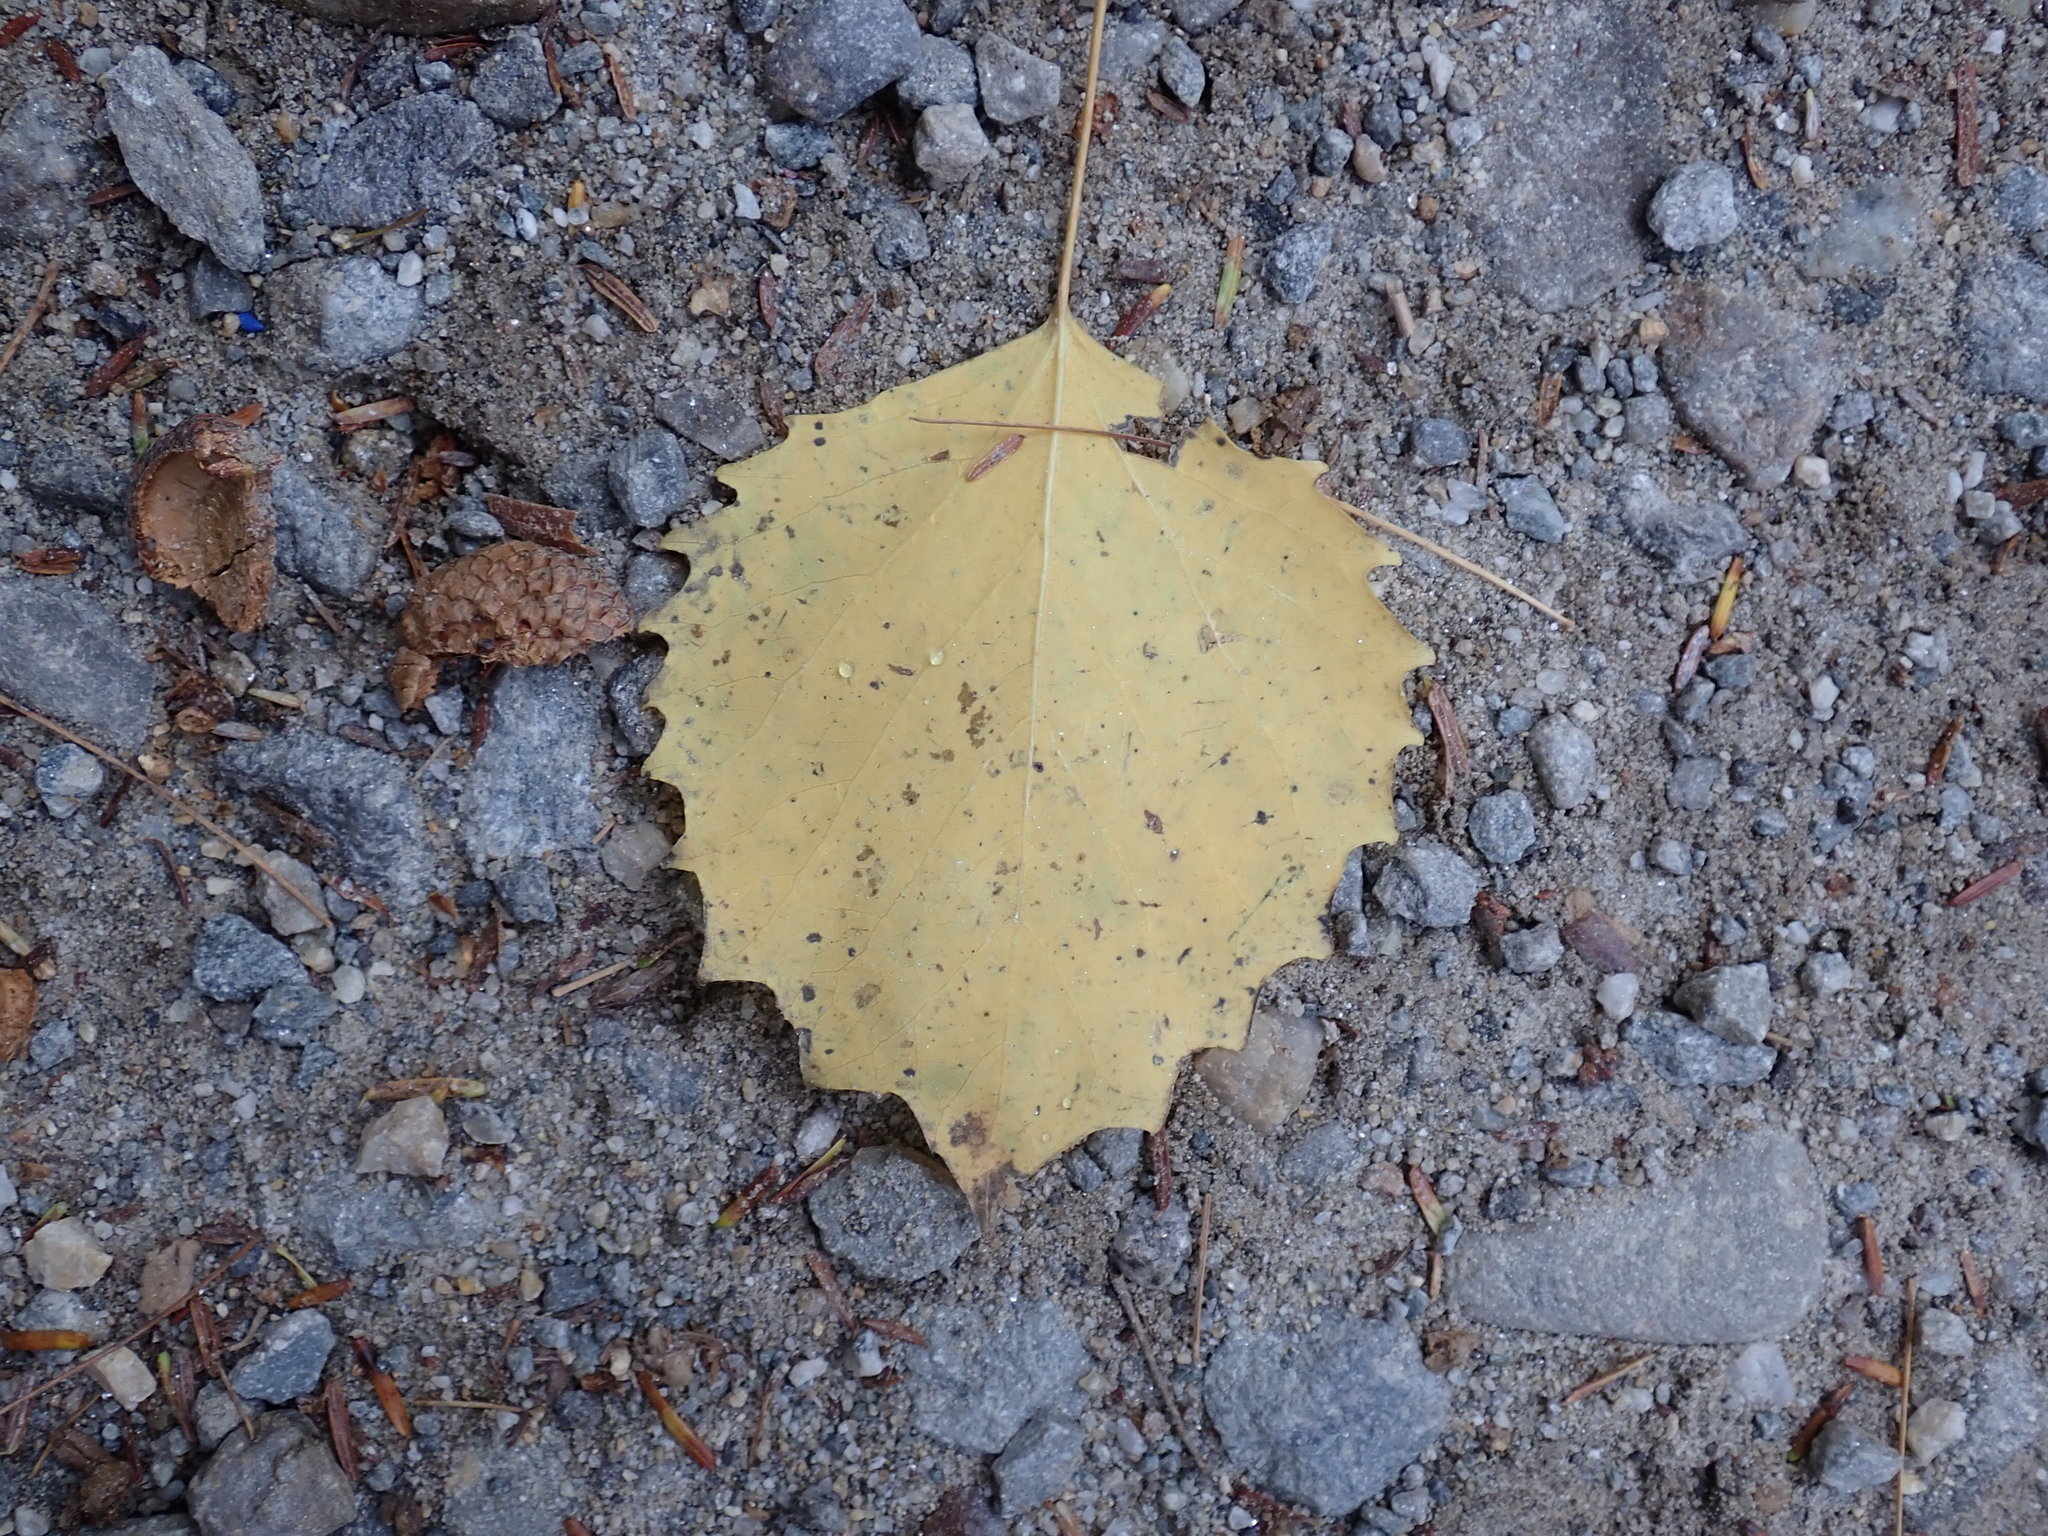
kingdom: Plantae
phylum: Tracheophyta
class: Magnoliopsida
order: Malpighiales
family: Salicaceae
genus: Populus
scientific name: Populus grandidentata
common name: Bigtooth aspen
